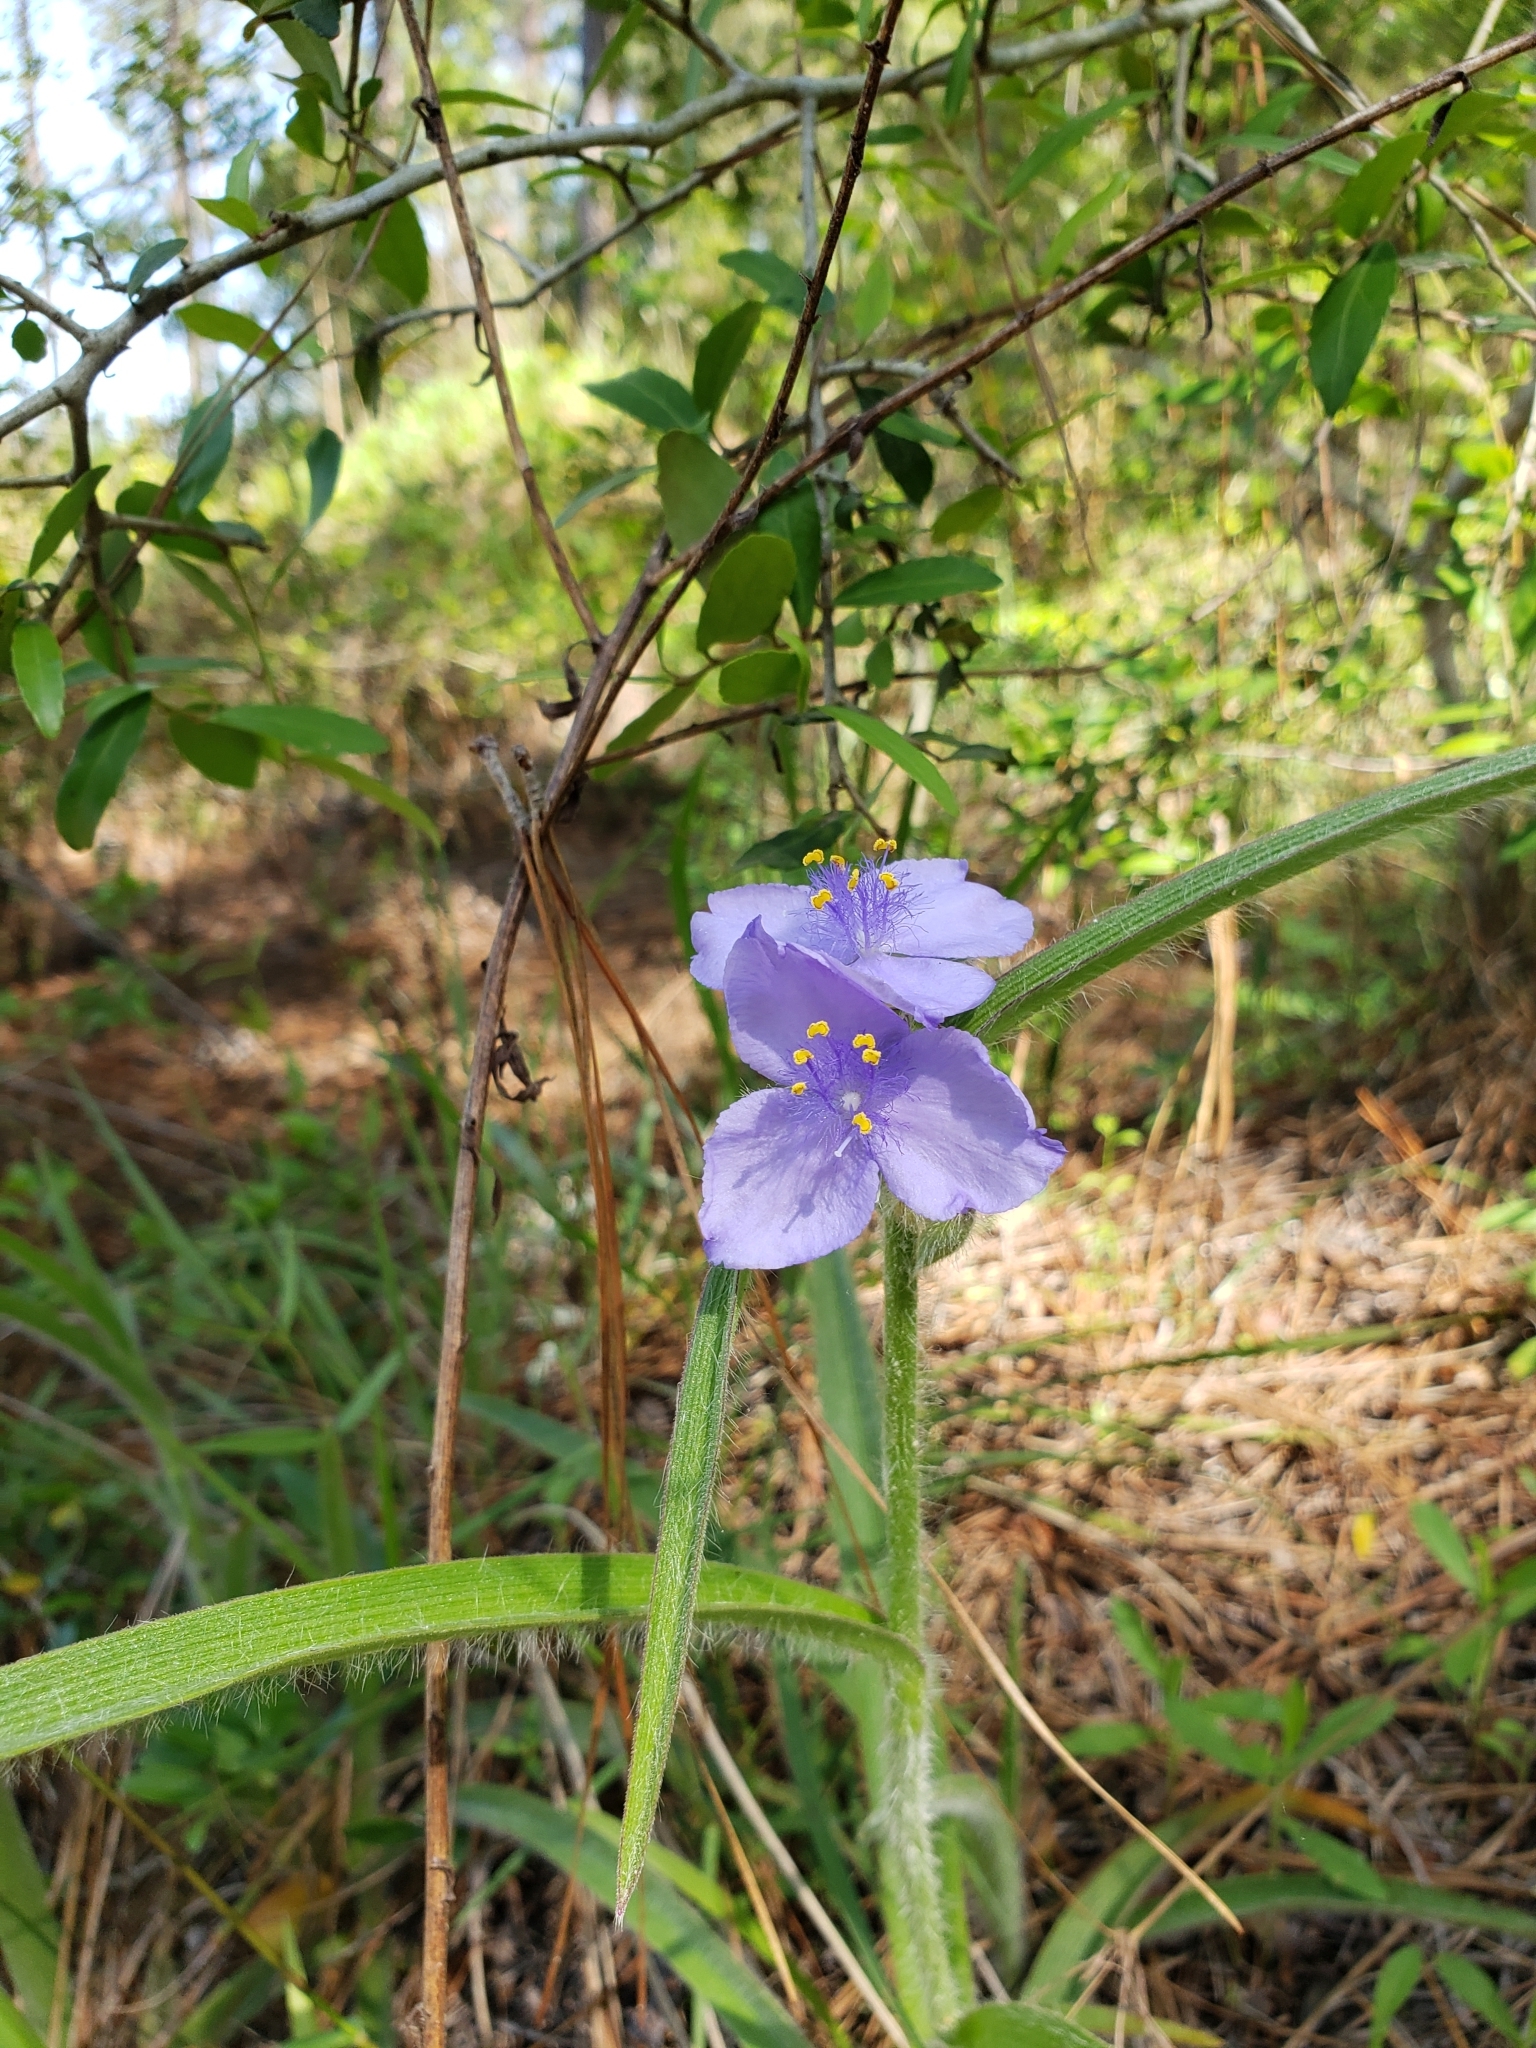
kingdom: Plantae
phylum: Tracheophyta
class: Liliopsida
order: Commelinales
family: Commelinaceae
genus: Tradescantia
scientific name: Tradescantia hirsutiflora
